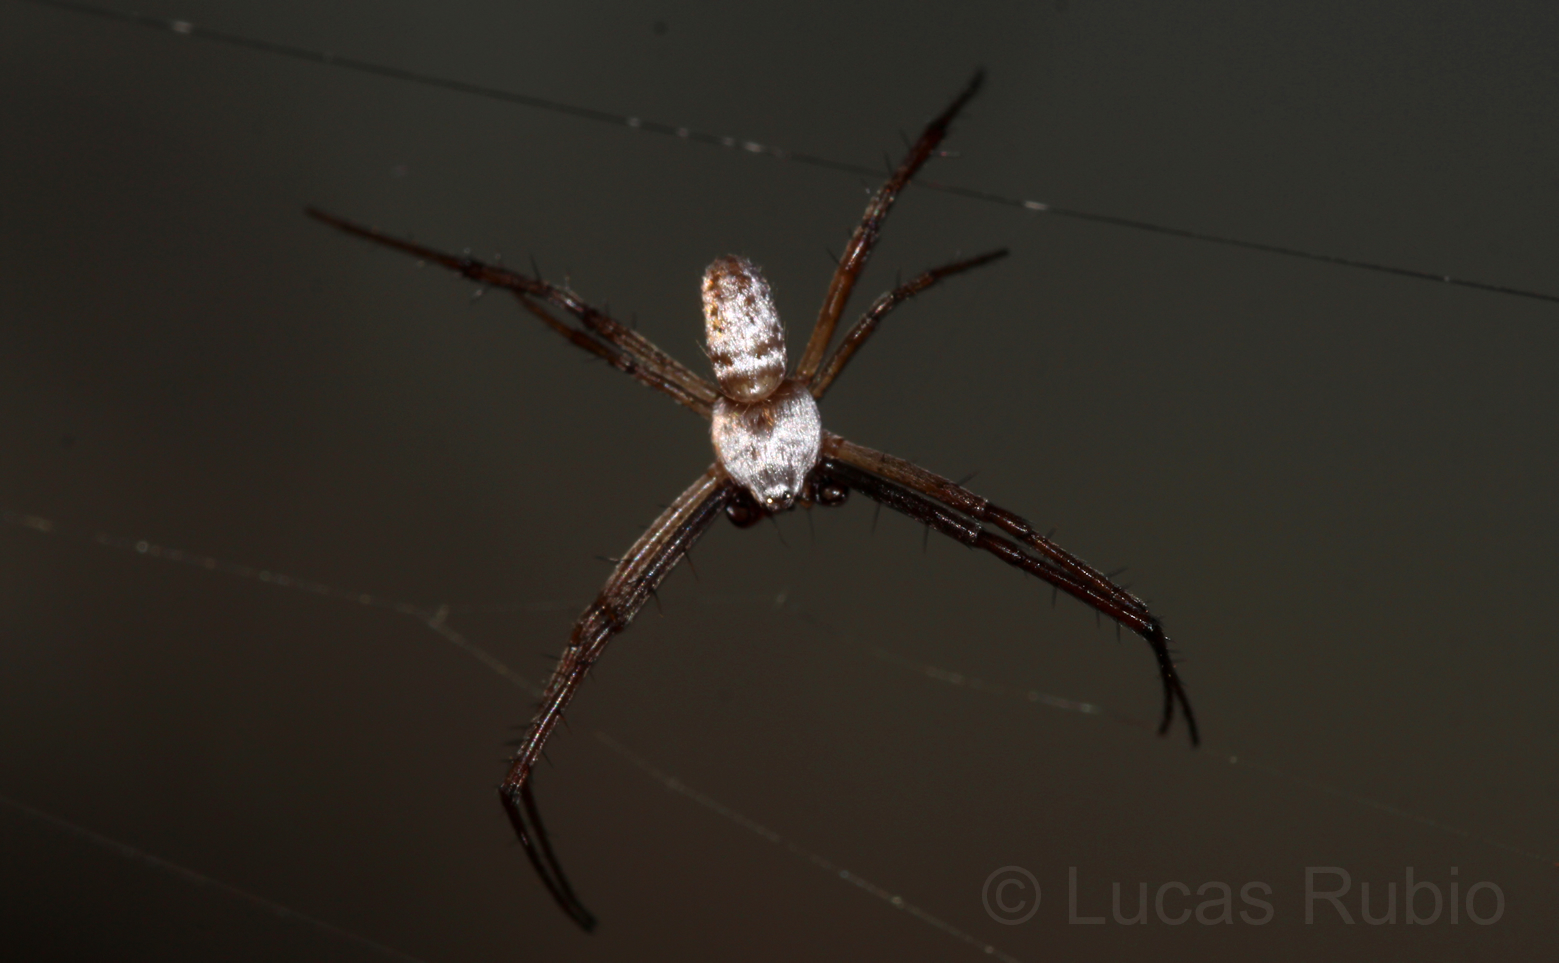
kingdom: Animalia
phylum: Arthropoda
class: Arachnida
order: Araneae
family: Araneidae
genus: Argiope
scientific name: Argiope trifasciata
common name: Banded garden spider
